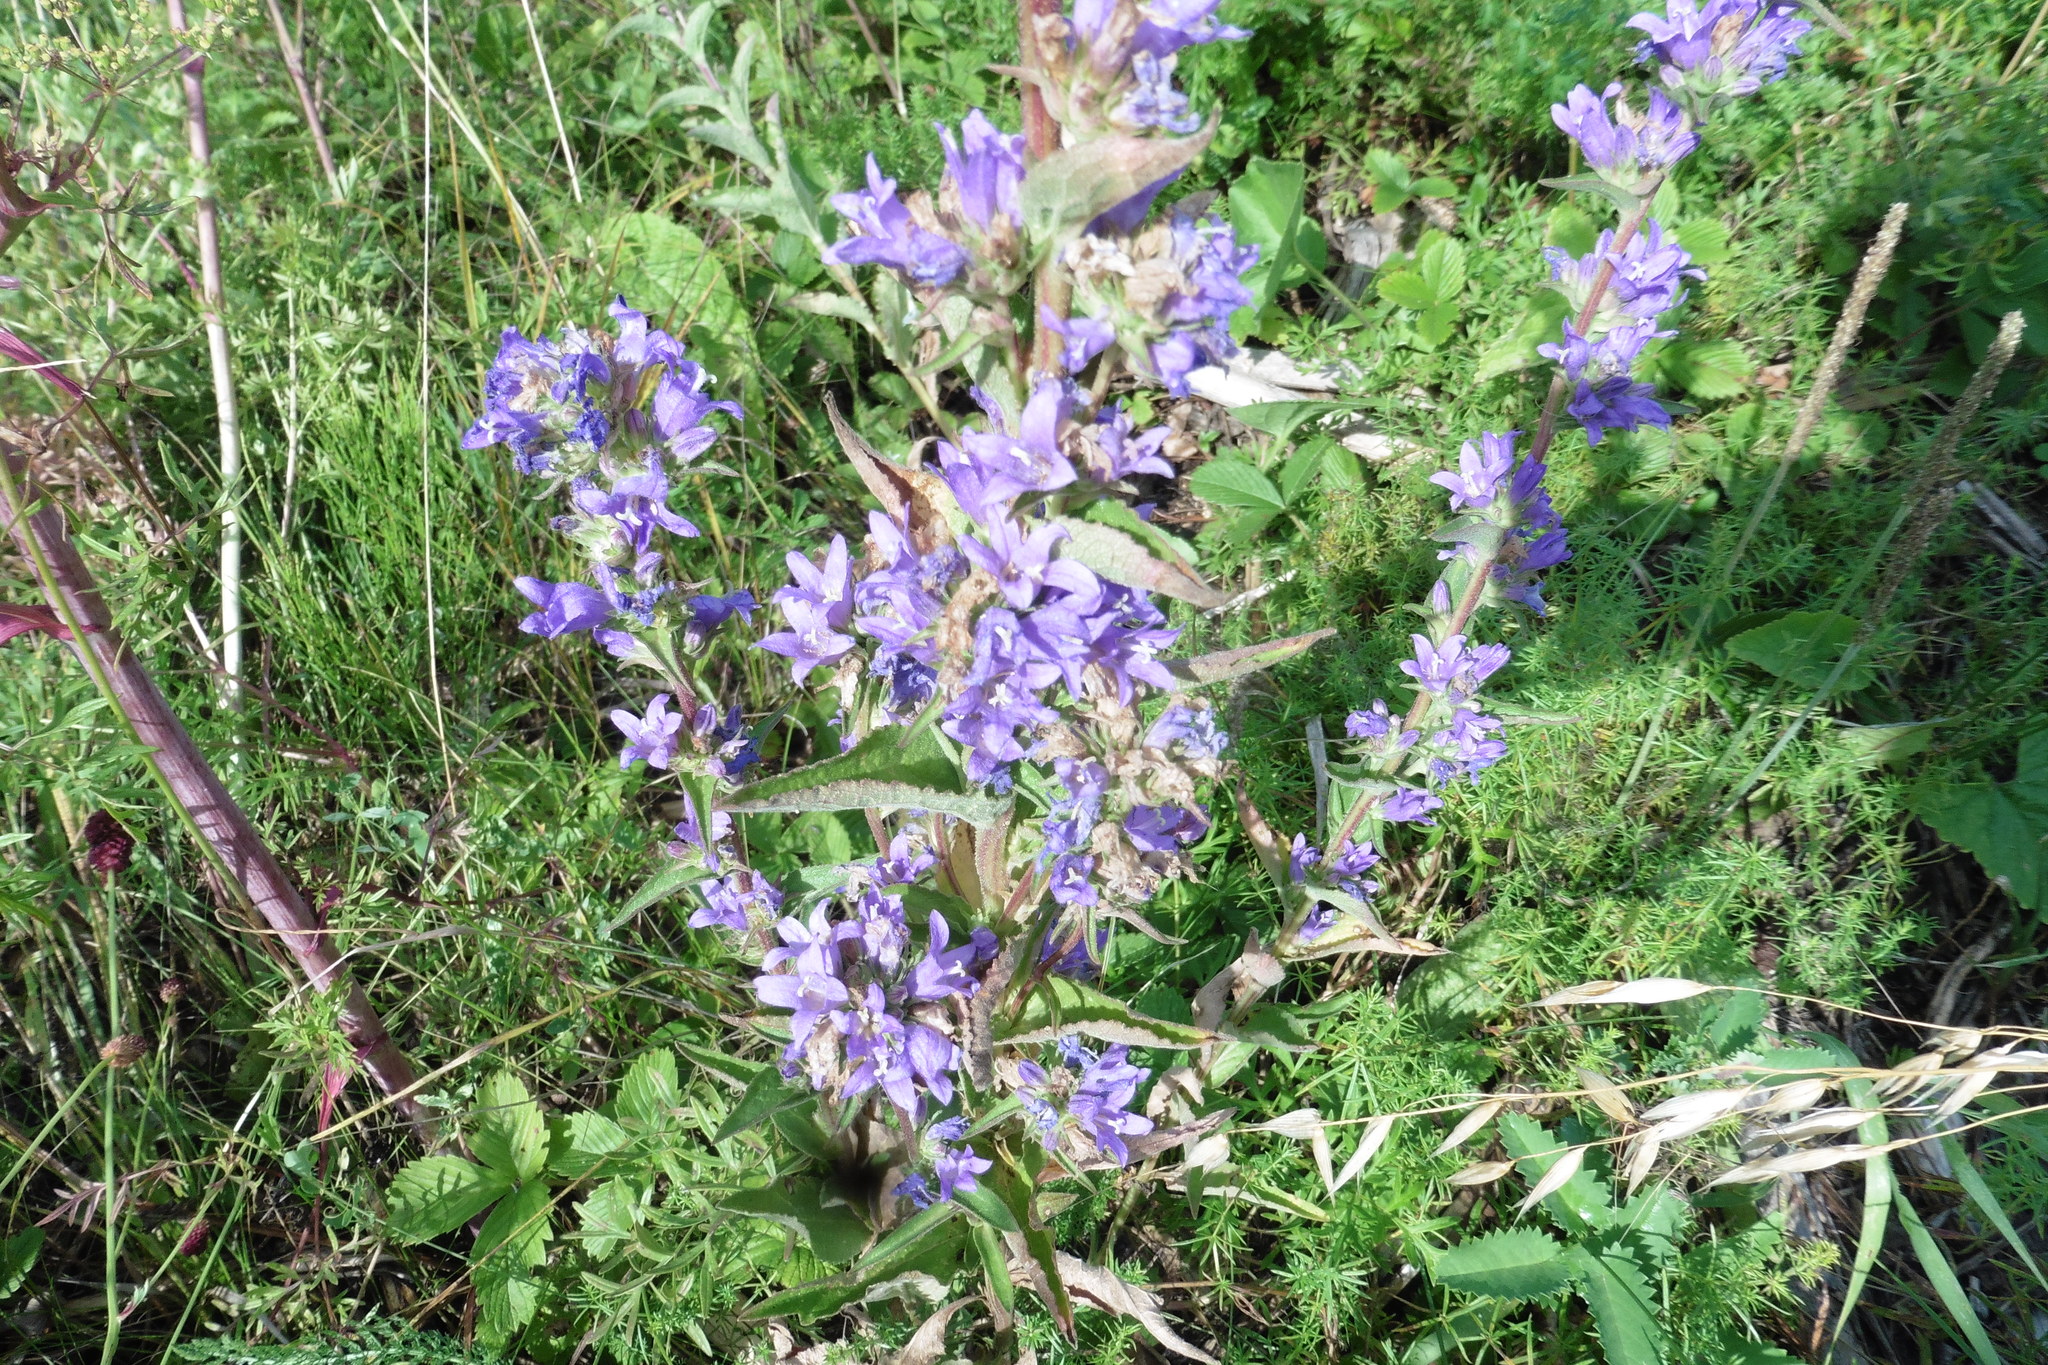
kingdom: Plantae
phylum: Tracheophyta
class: Magnoliopsida
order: Asterales
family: Campanulaceae
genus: Campanula
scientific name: Campanula glomerata
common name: Clustered bellflower
